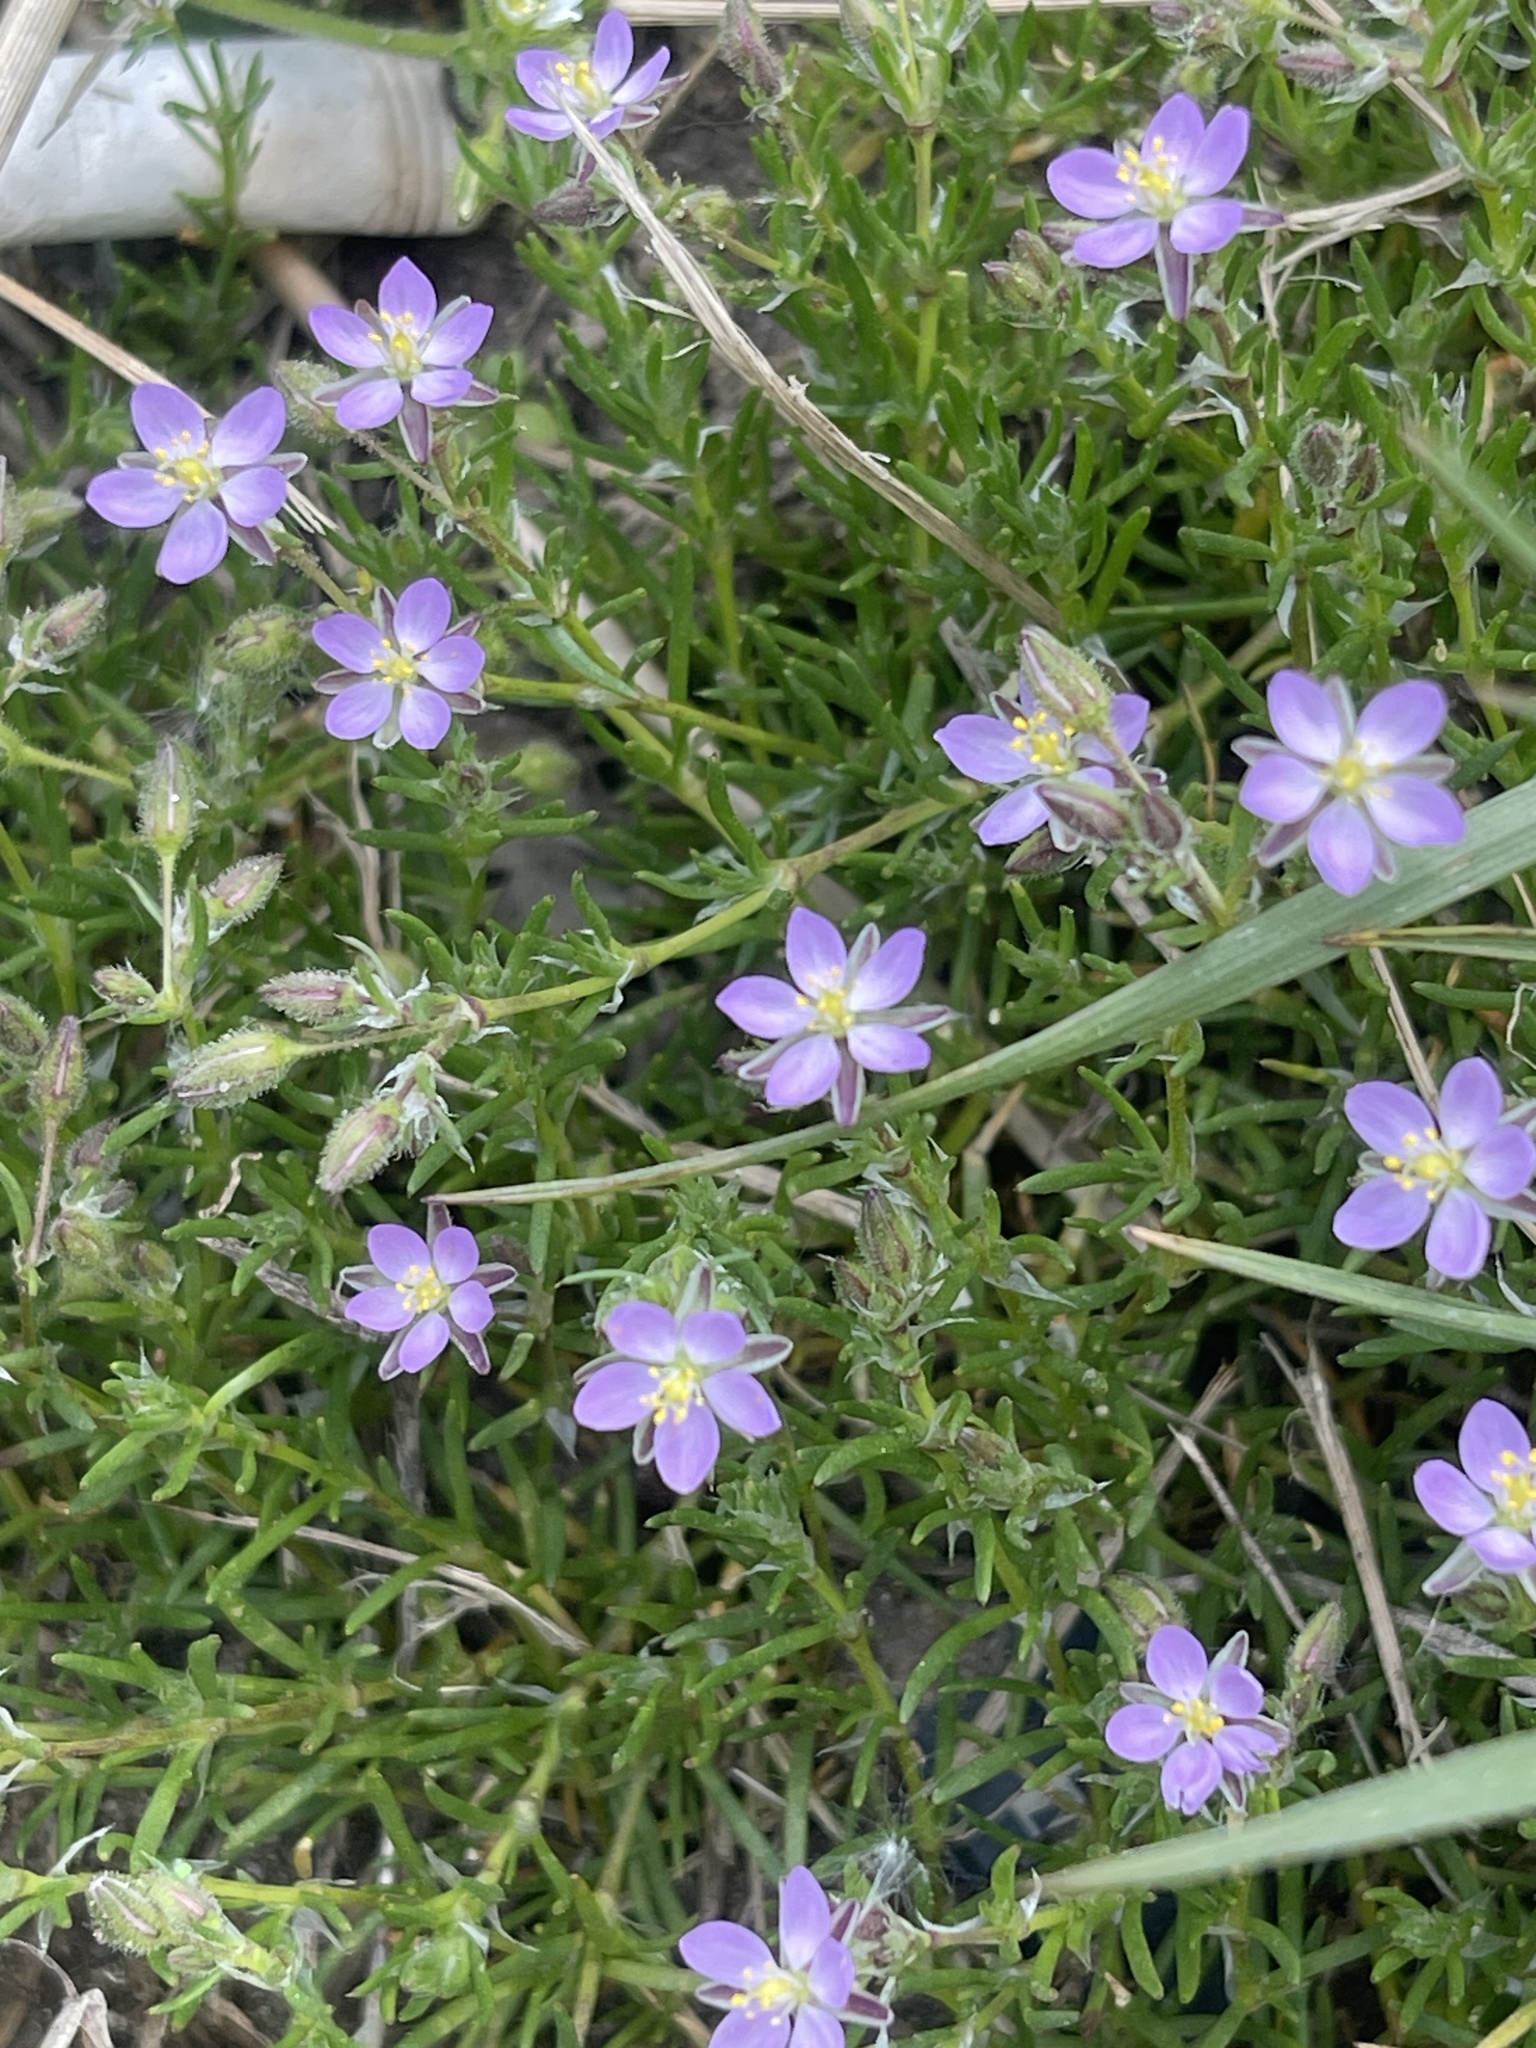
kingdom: Plantae
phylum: Tracheophyta
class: Magnoliopsida
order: Caryophyllales
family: Caryophyllaceae
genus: Spergularia
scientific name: Spergularia rubra
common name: Red sand-spurrey
